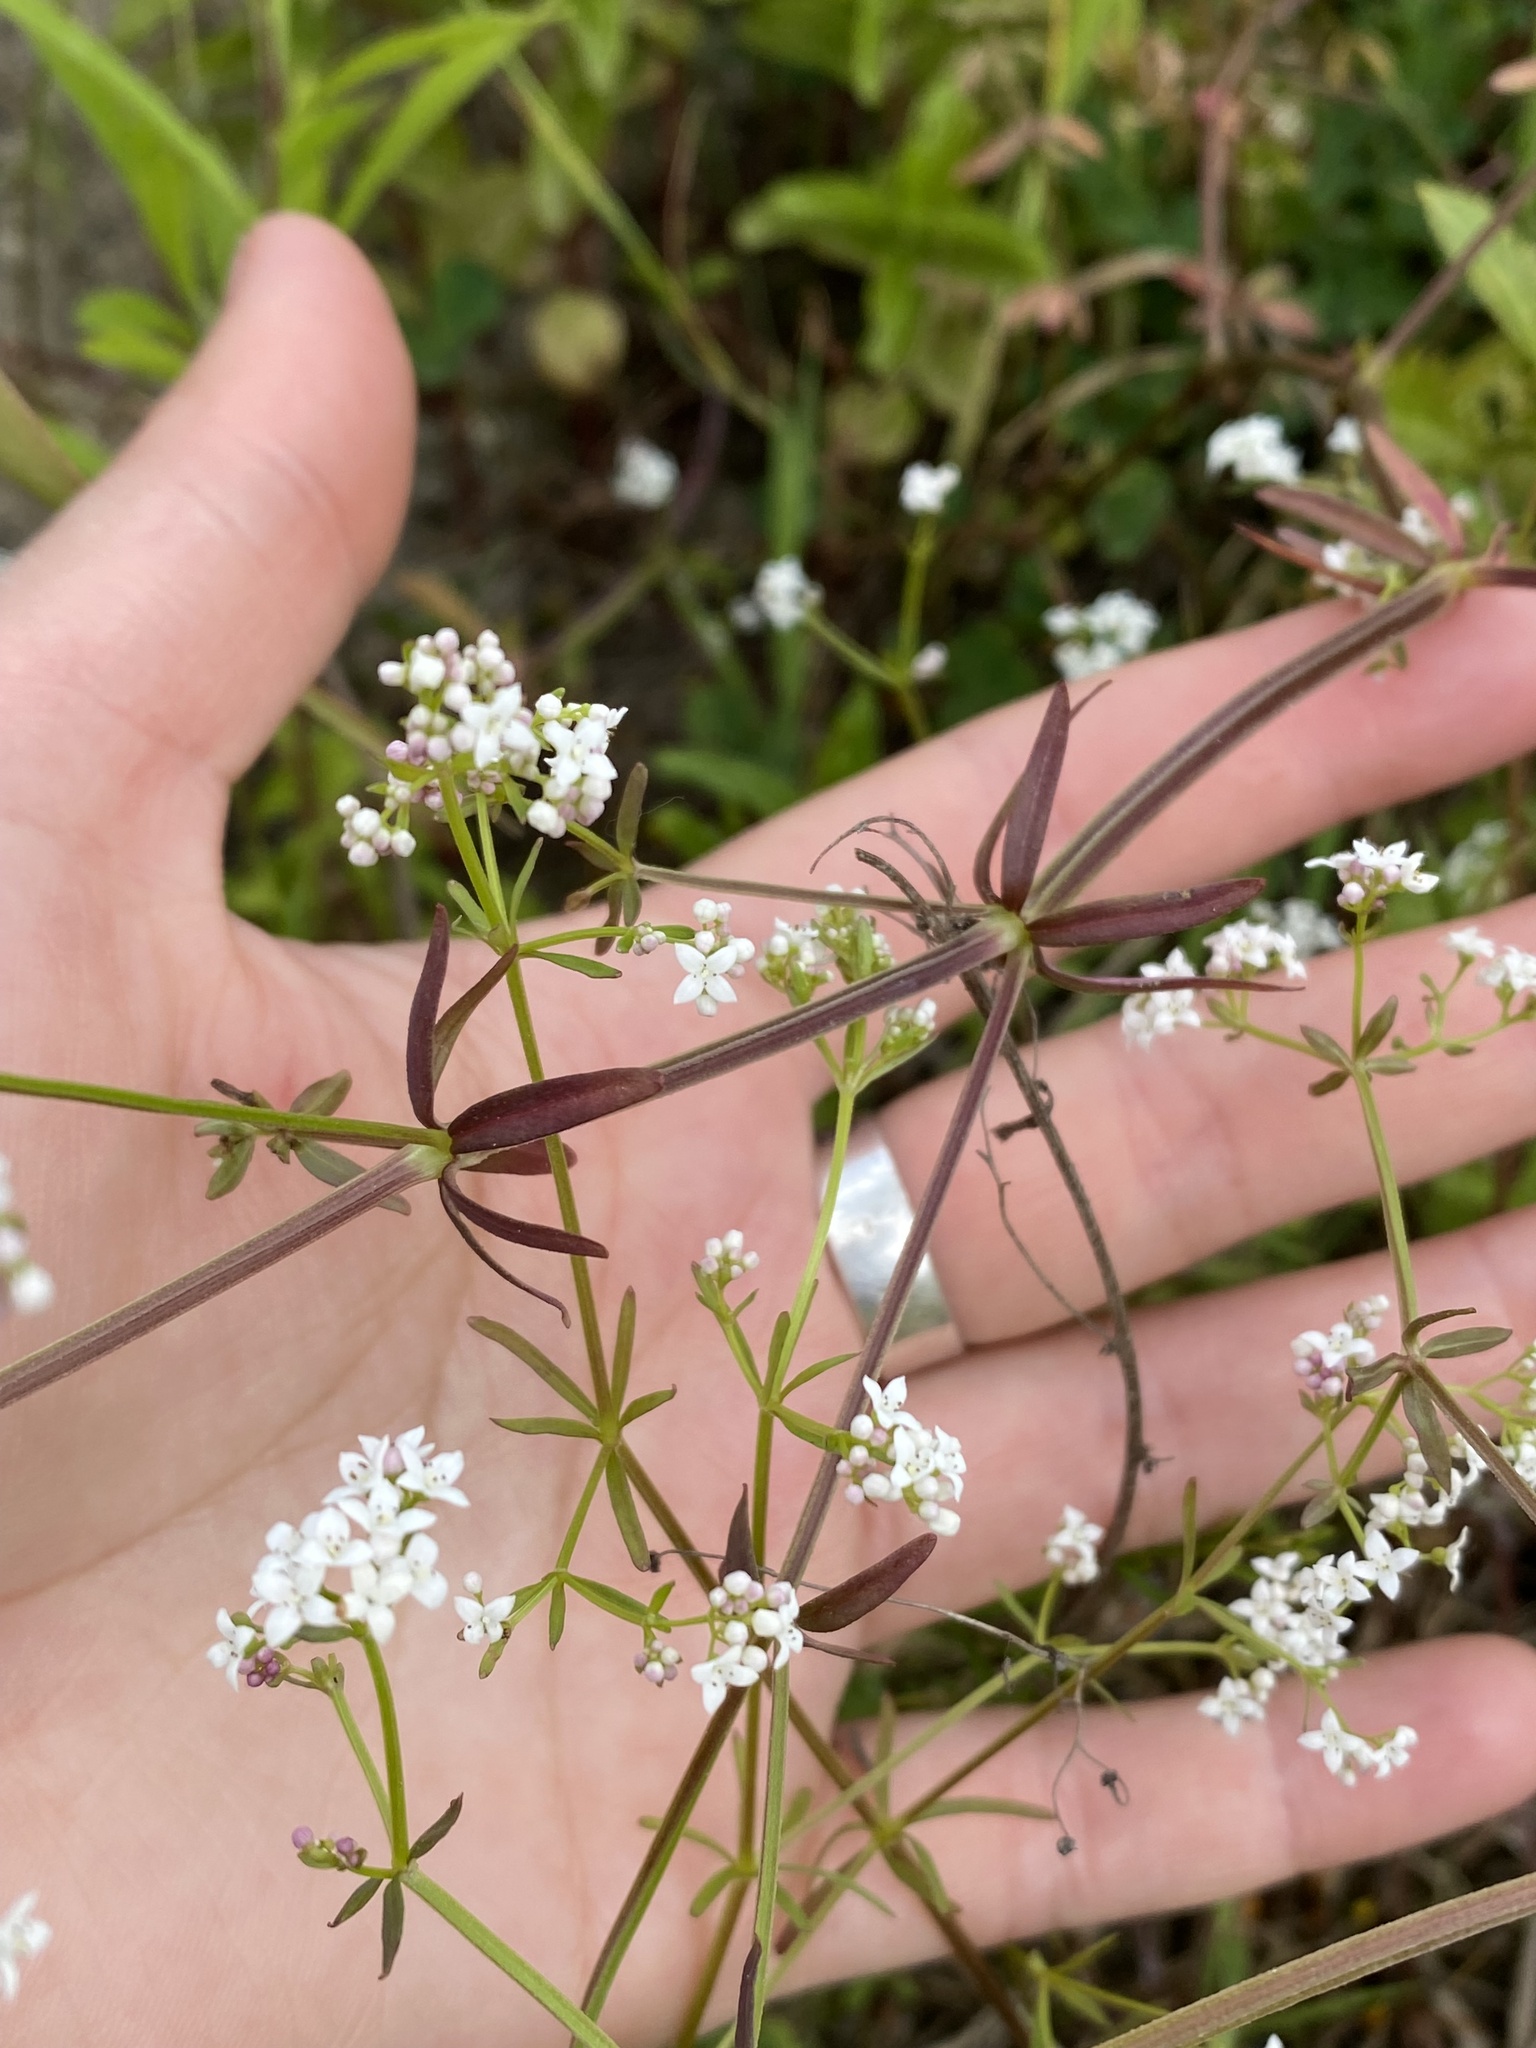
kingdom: Plantae
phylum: Tracheophyta
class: Magnoliopsida
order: Gentianales
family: Rubiaceae
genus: Galium
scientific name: Galium palustre
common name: Common marsh-bedstraw
